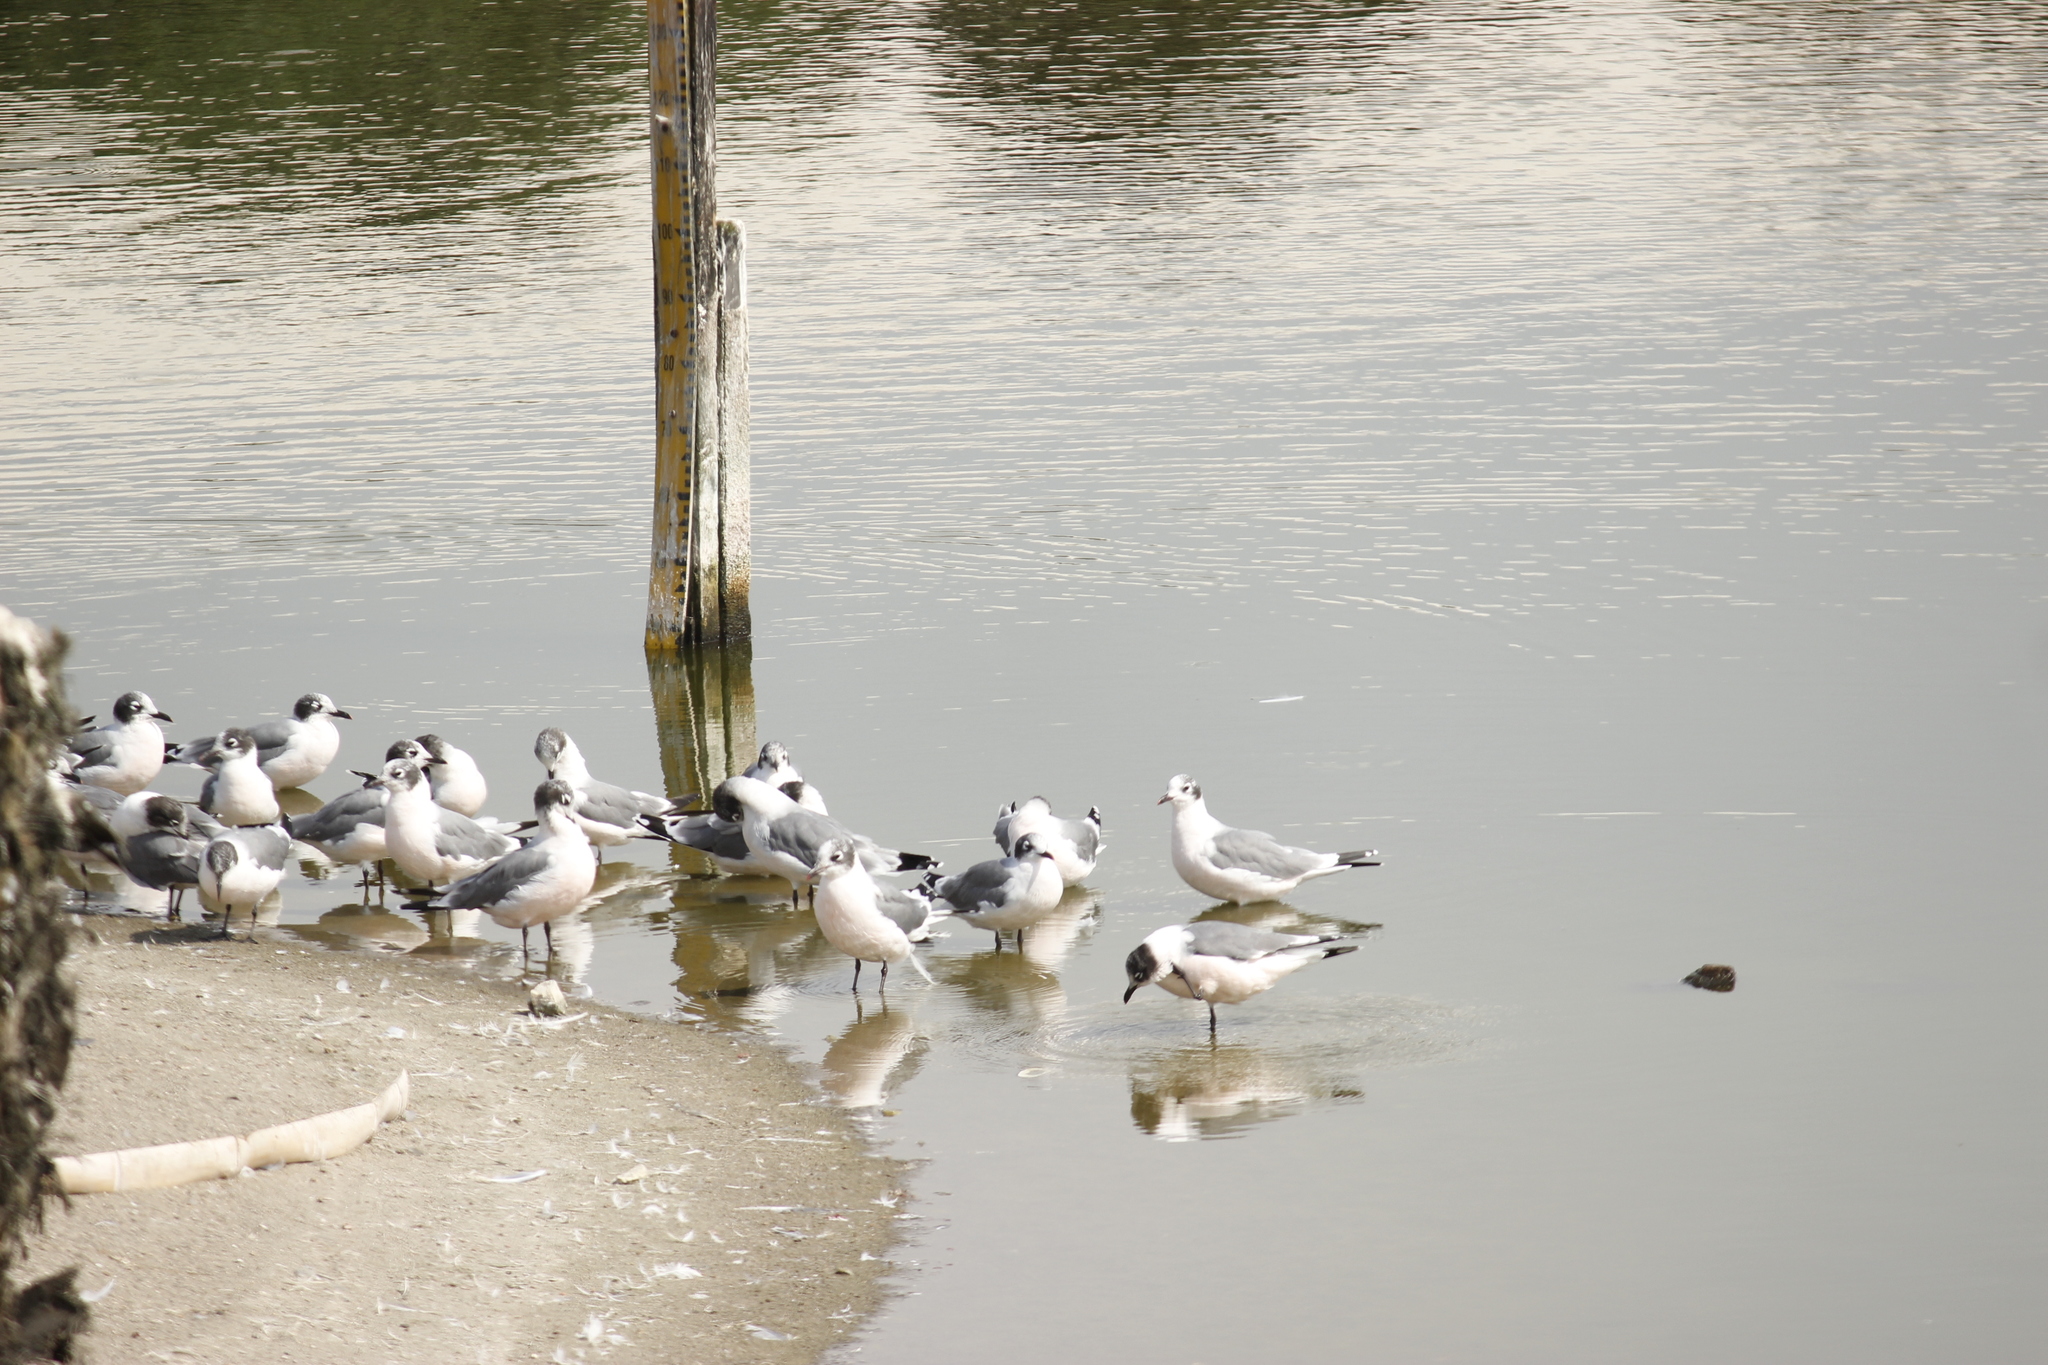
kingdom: Animalia
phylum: Chordata
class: Aves
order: Charadriiformes
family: Laridae
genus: Leucophaeus
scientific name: Leucophaeus pipixcan
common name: Franklin's gull
